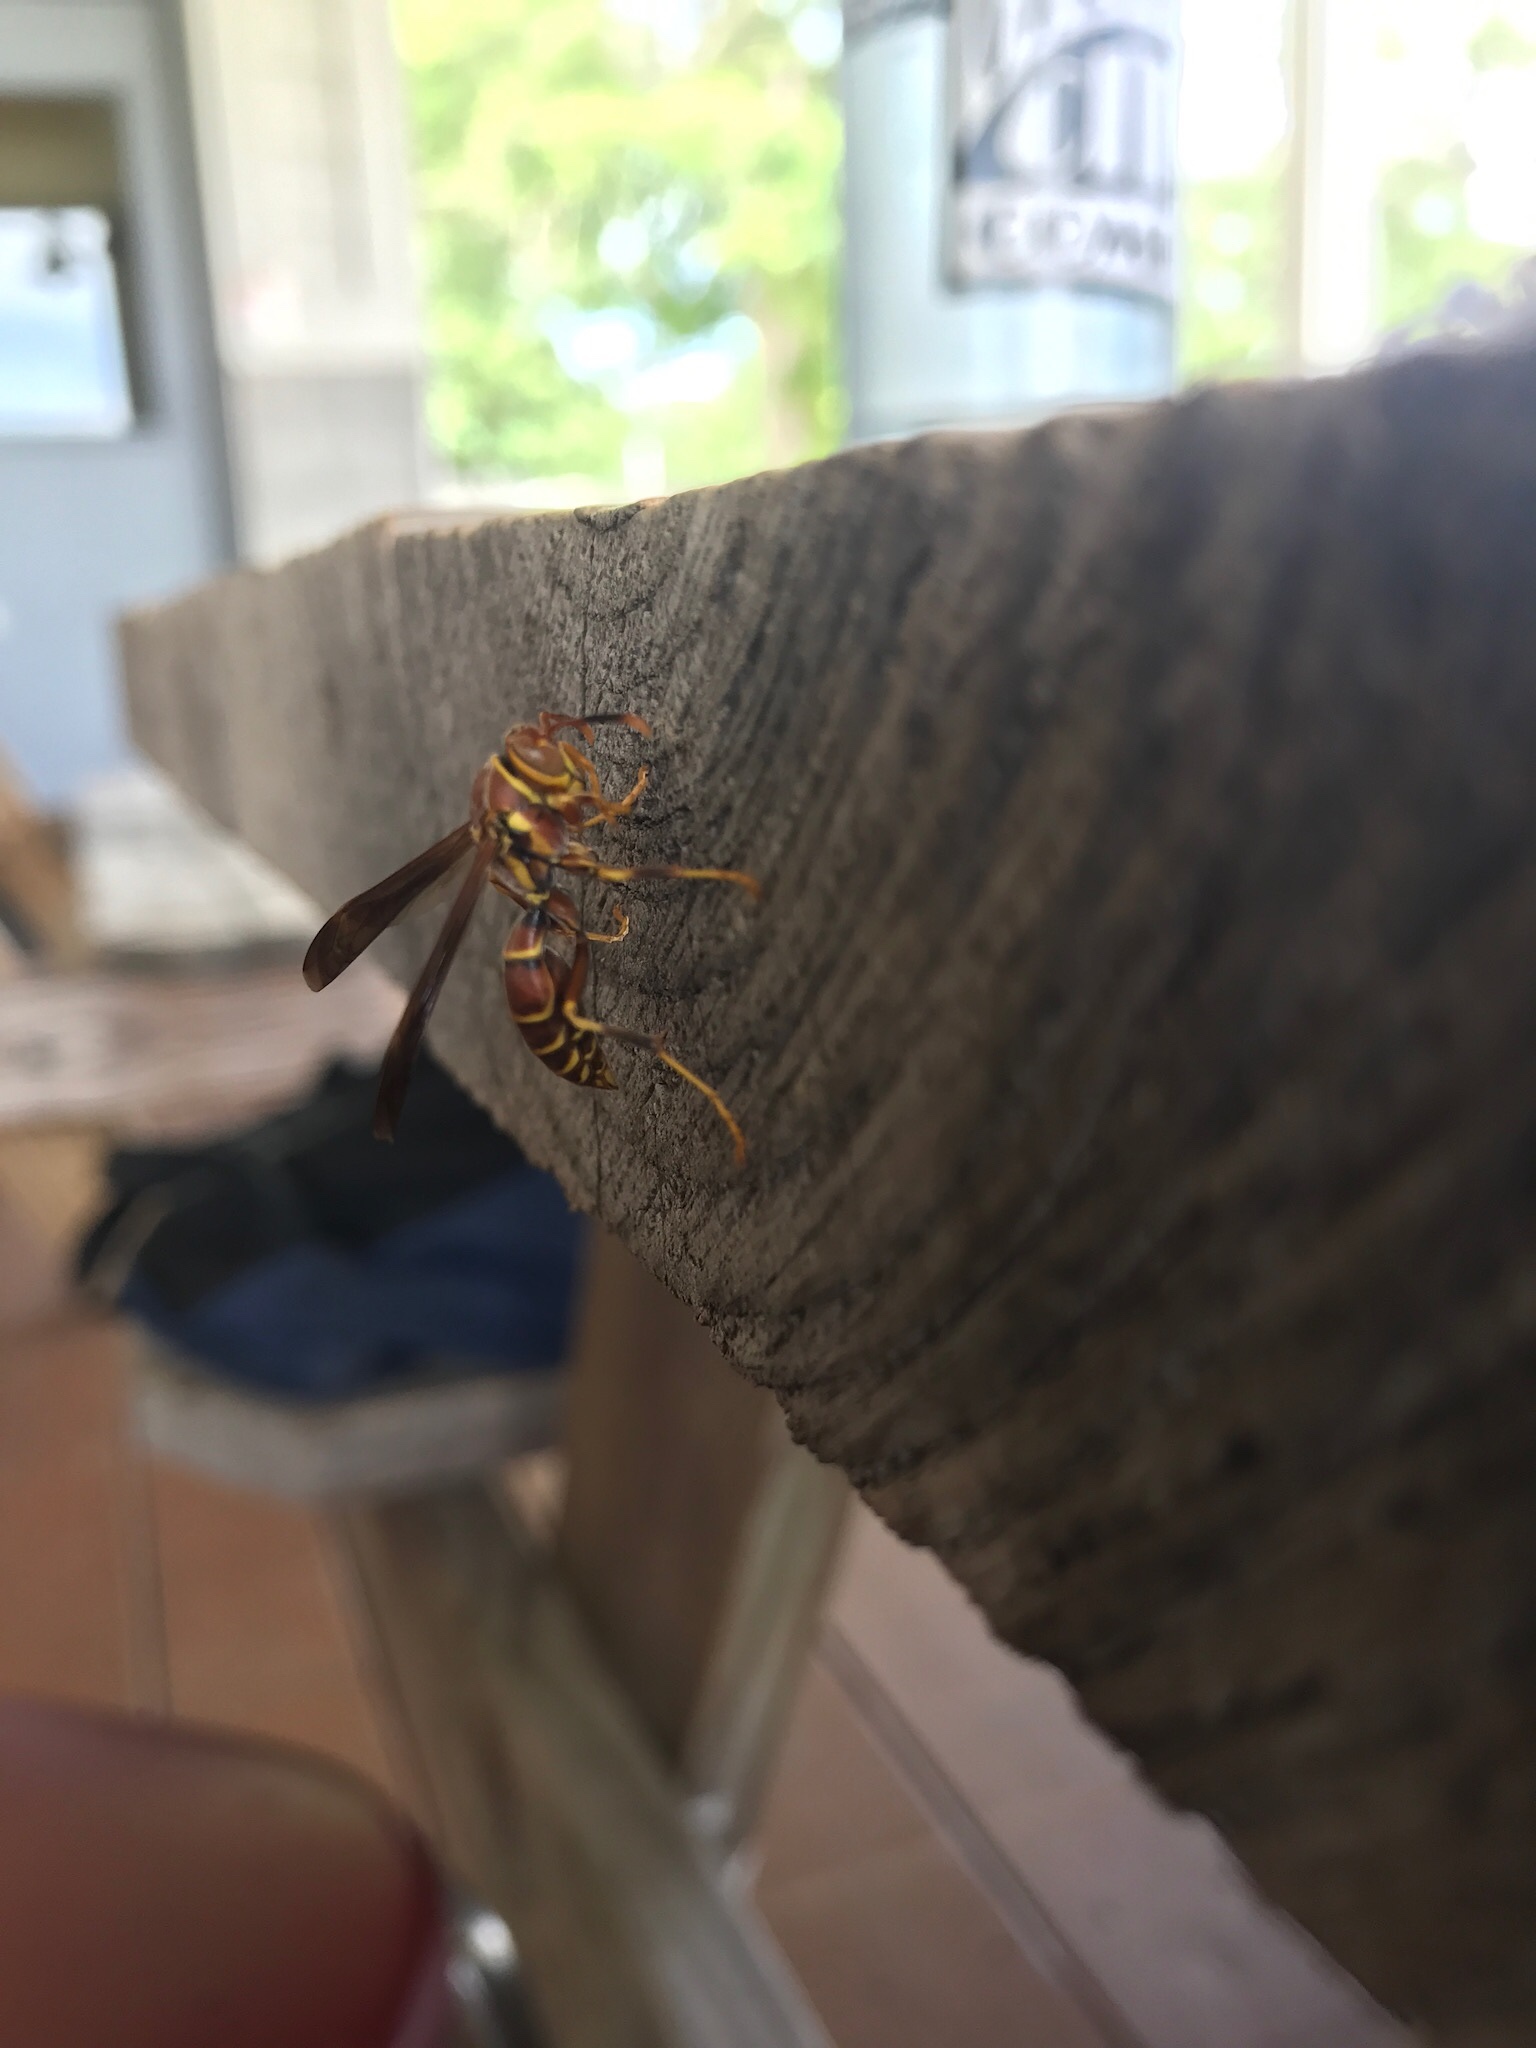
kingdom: Animalia
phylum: Arthropoda
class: Insecta
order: Hymenoptera
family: Eumenidae
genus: Polistes
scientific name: Polistes exclamans
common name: Paper wasp
